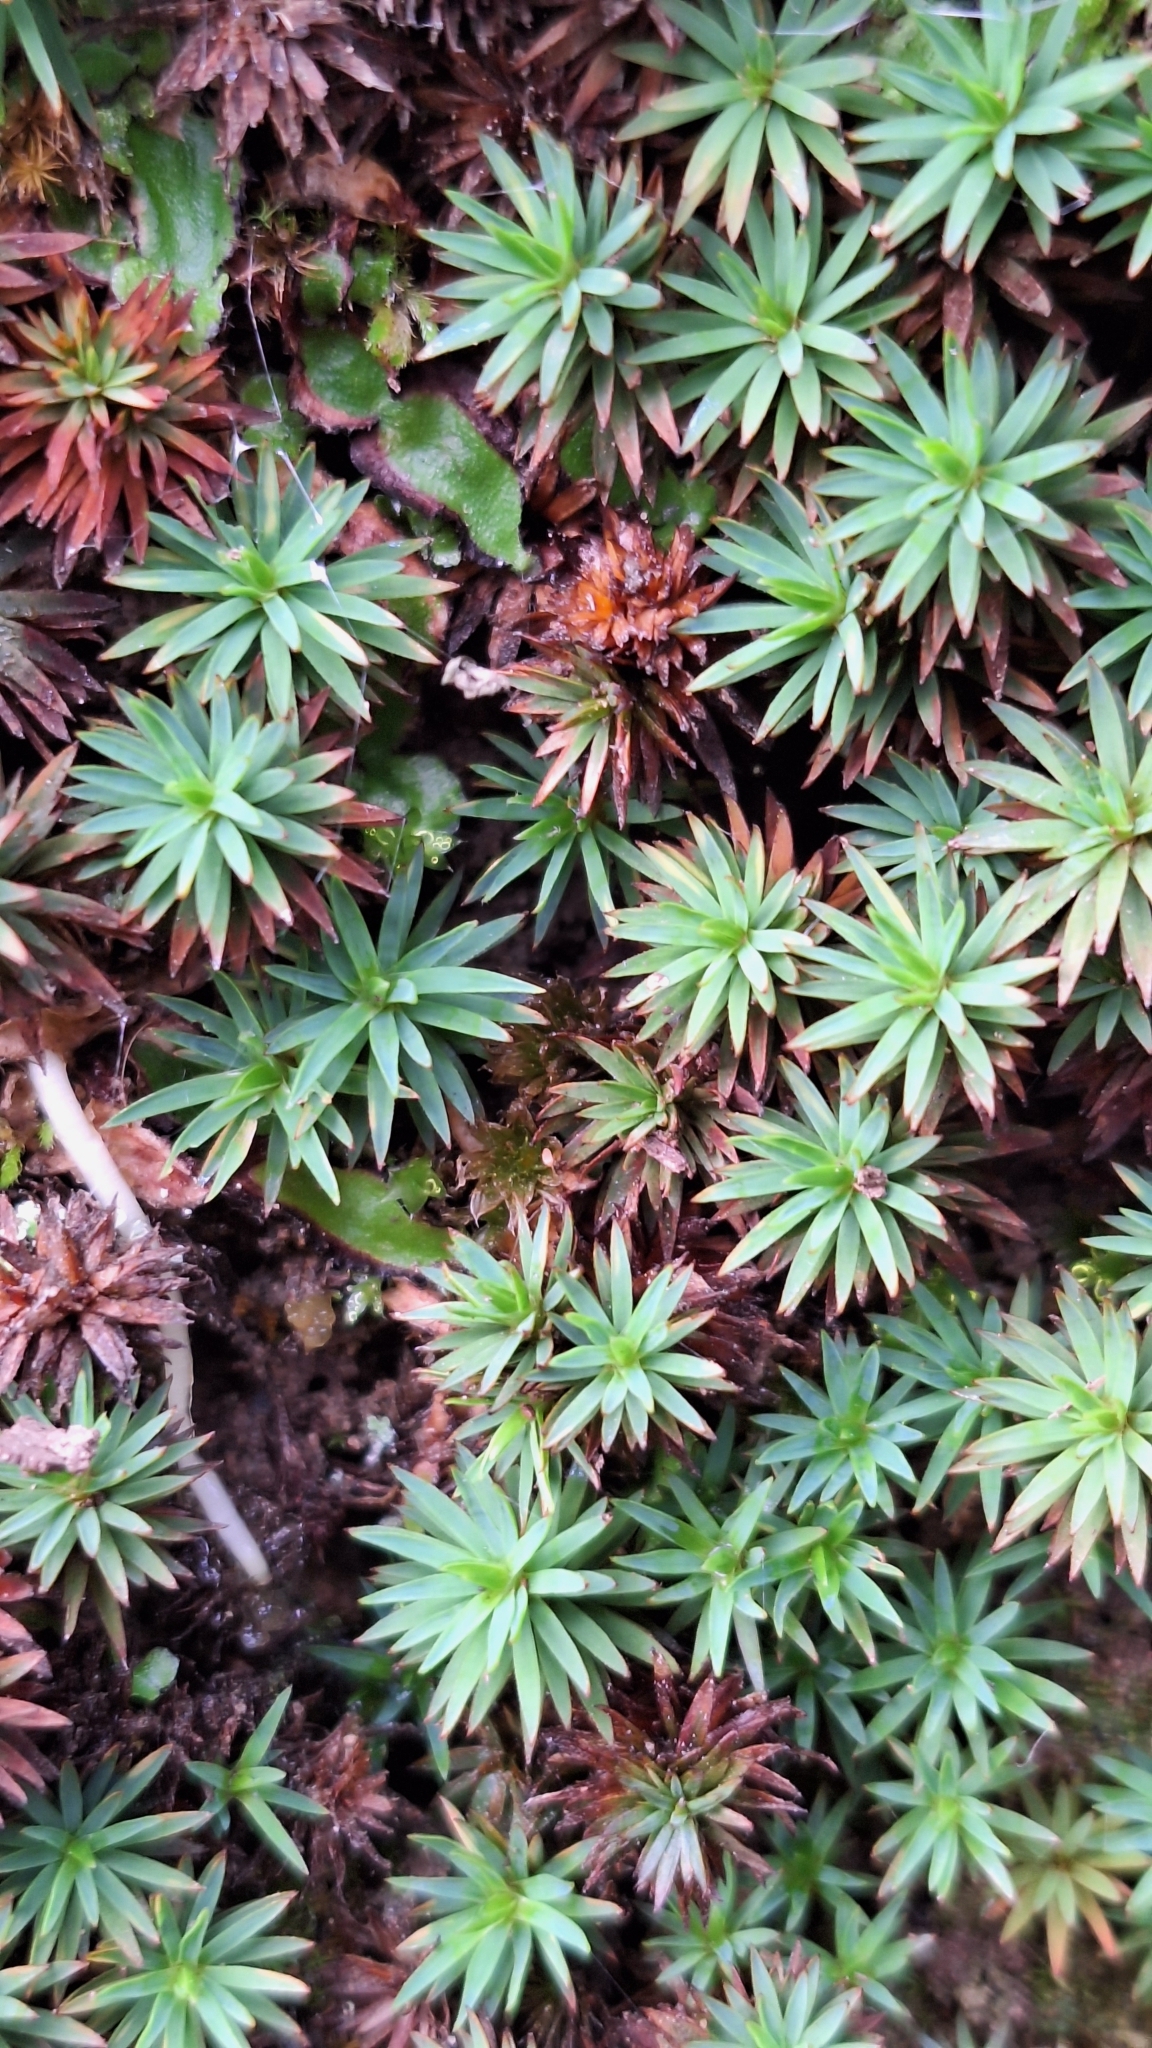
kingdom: Plantae
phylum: Bryophyta
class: Polytrichopsida
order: Polytrichales
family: Polytrichaceae
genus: Dawsonia
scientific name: Dawsonia longiseta
